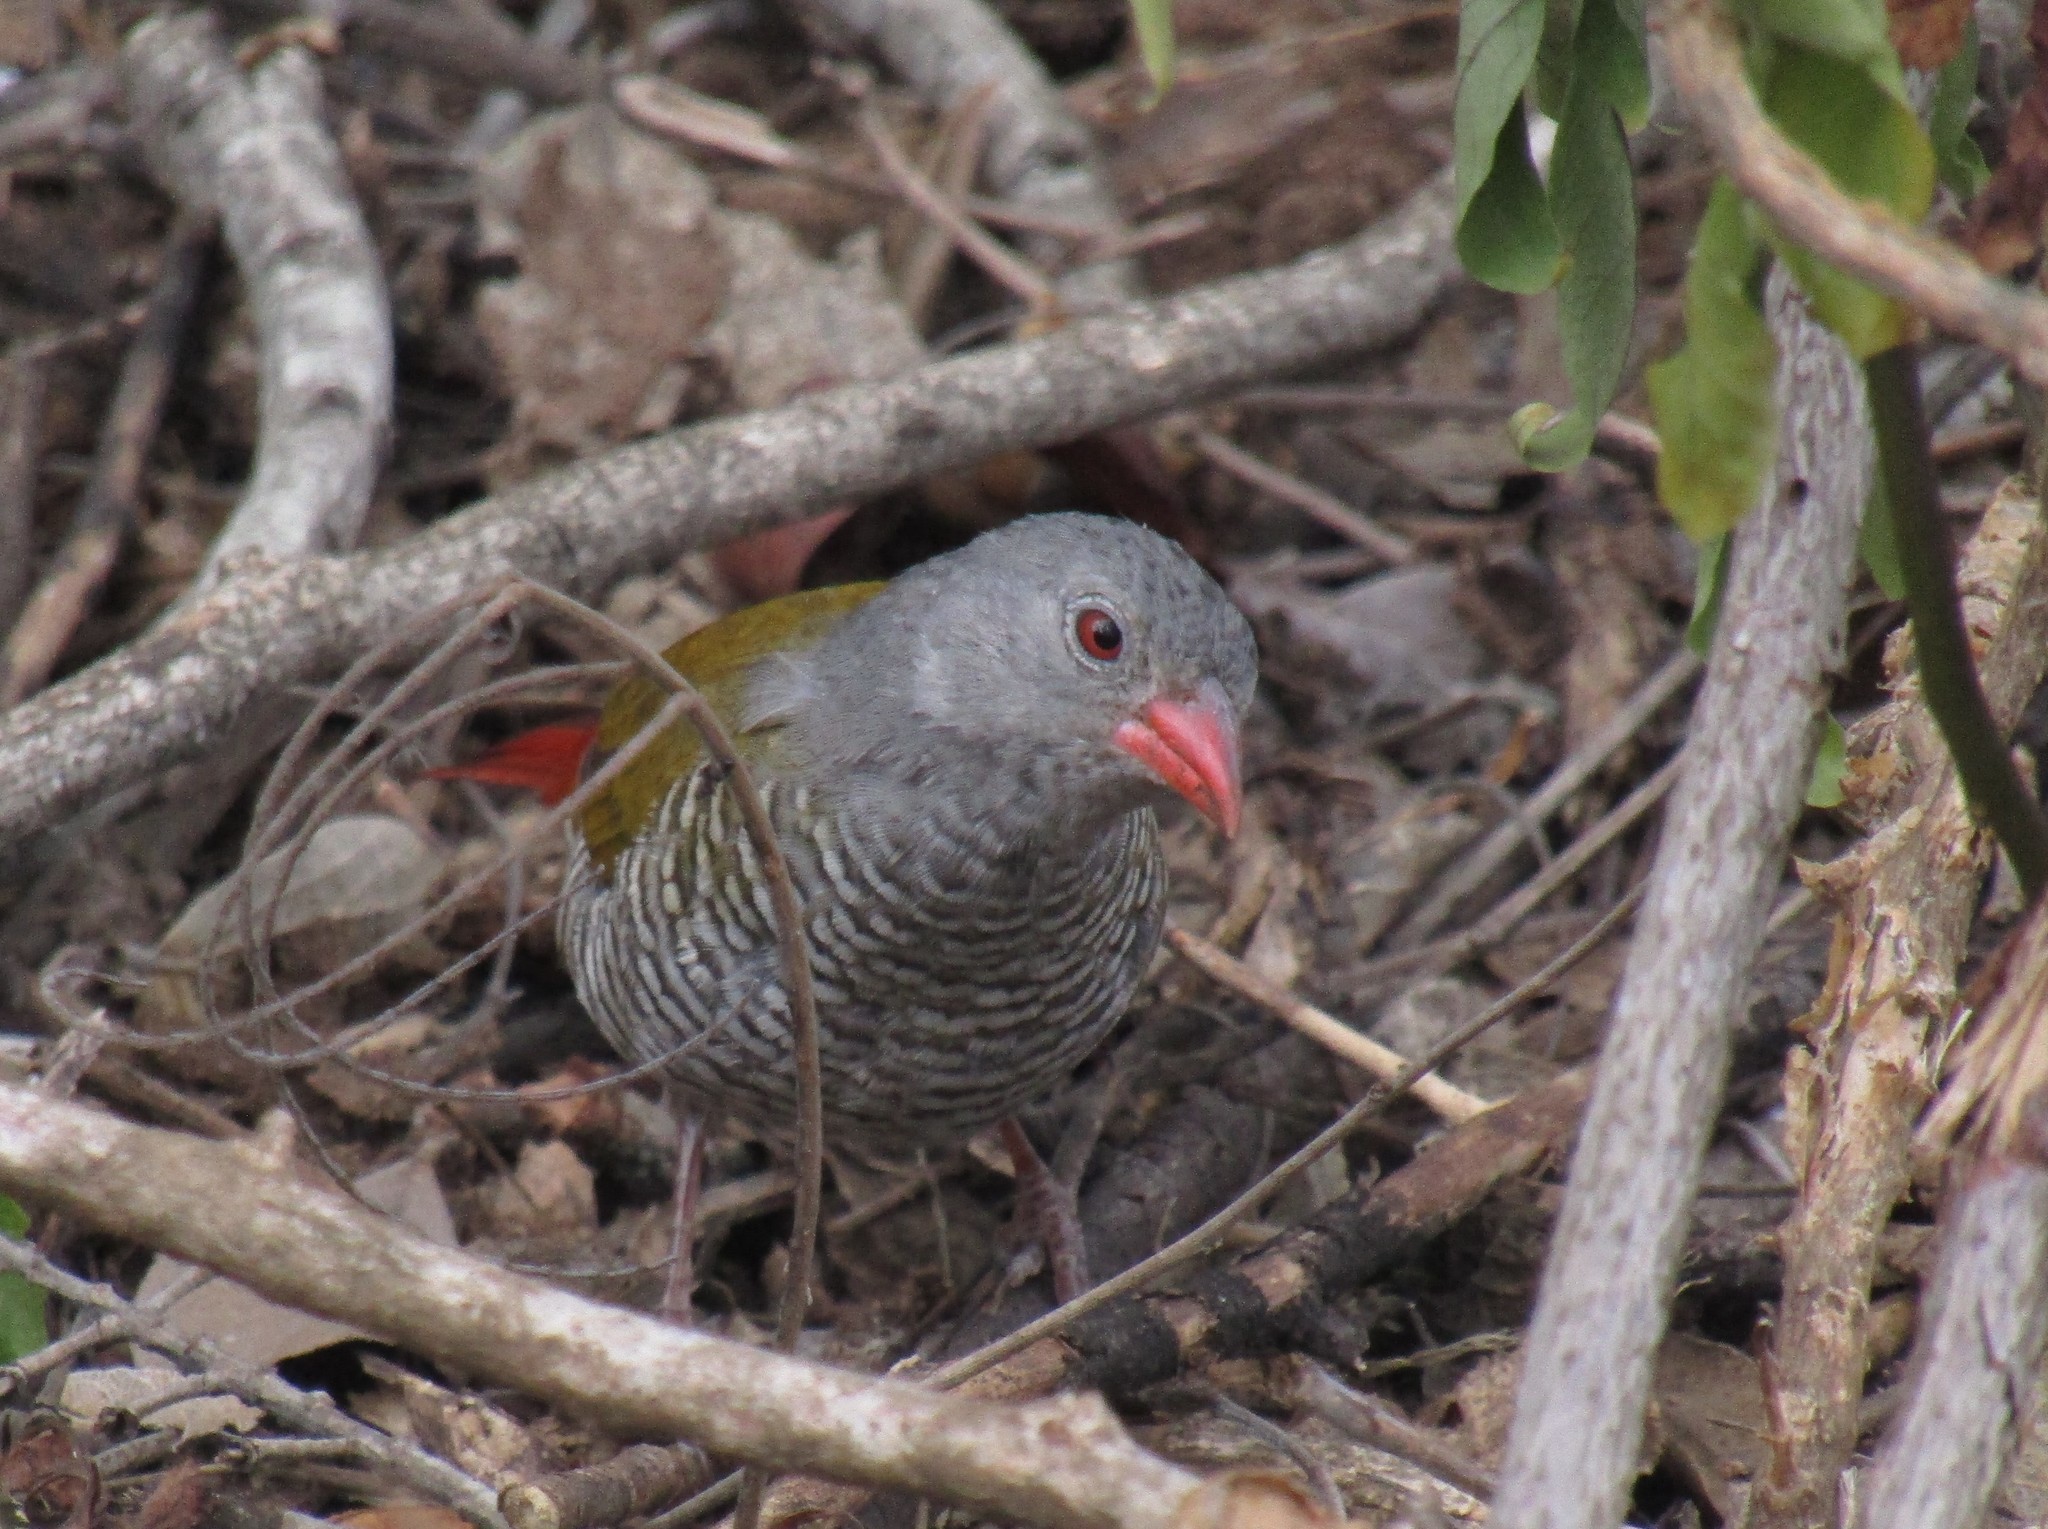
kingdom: Animalia
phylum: Chordata
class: Aves
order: Passeriformes
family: Estrildidae
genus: Pytilia
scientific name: Pytilia melba
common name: Green-winged pytilia
